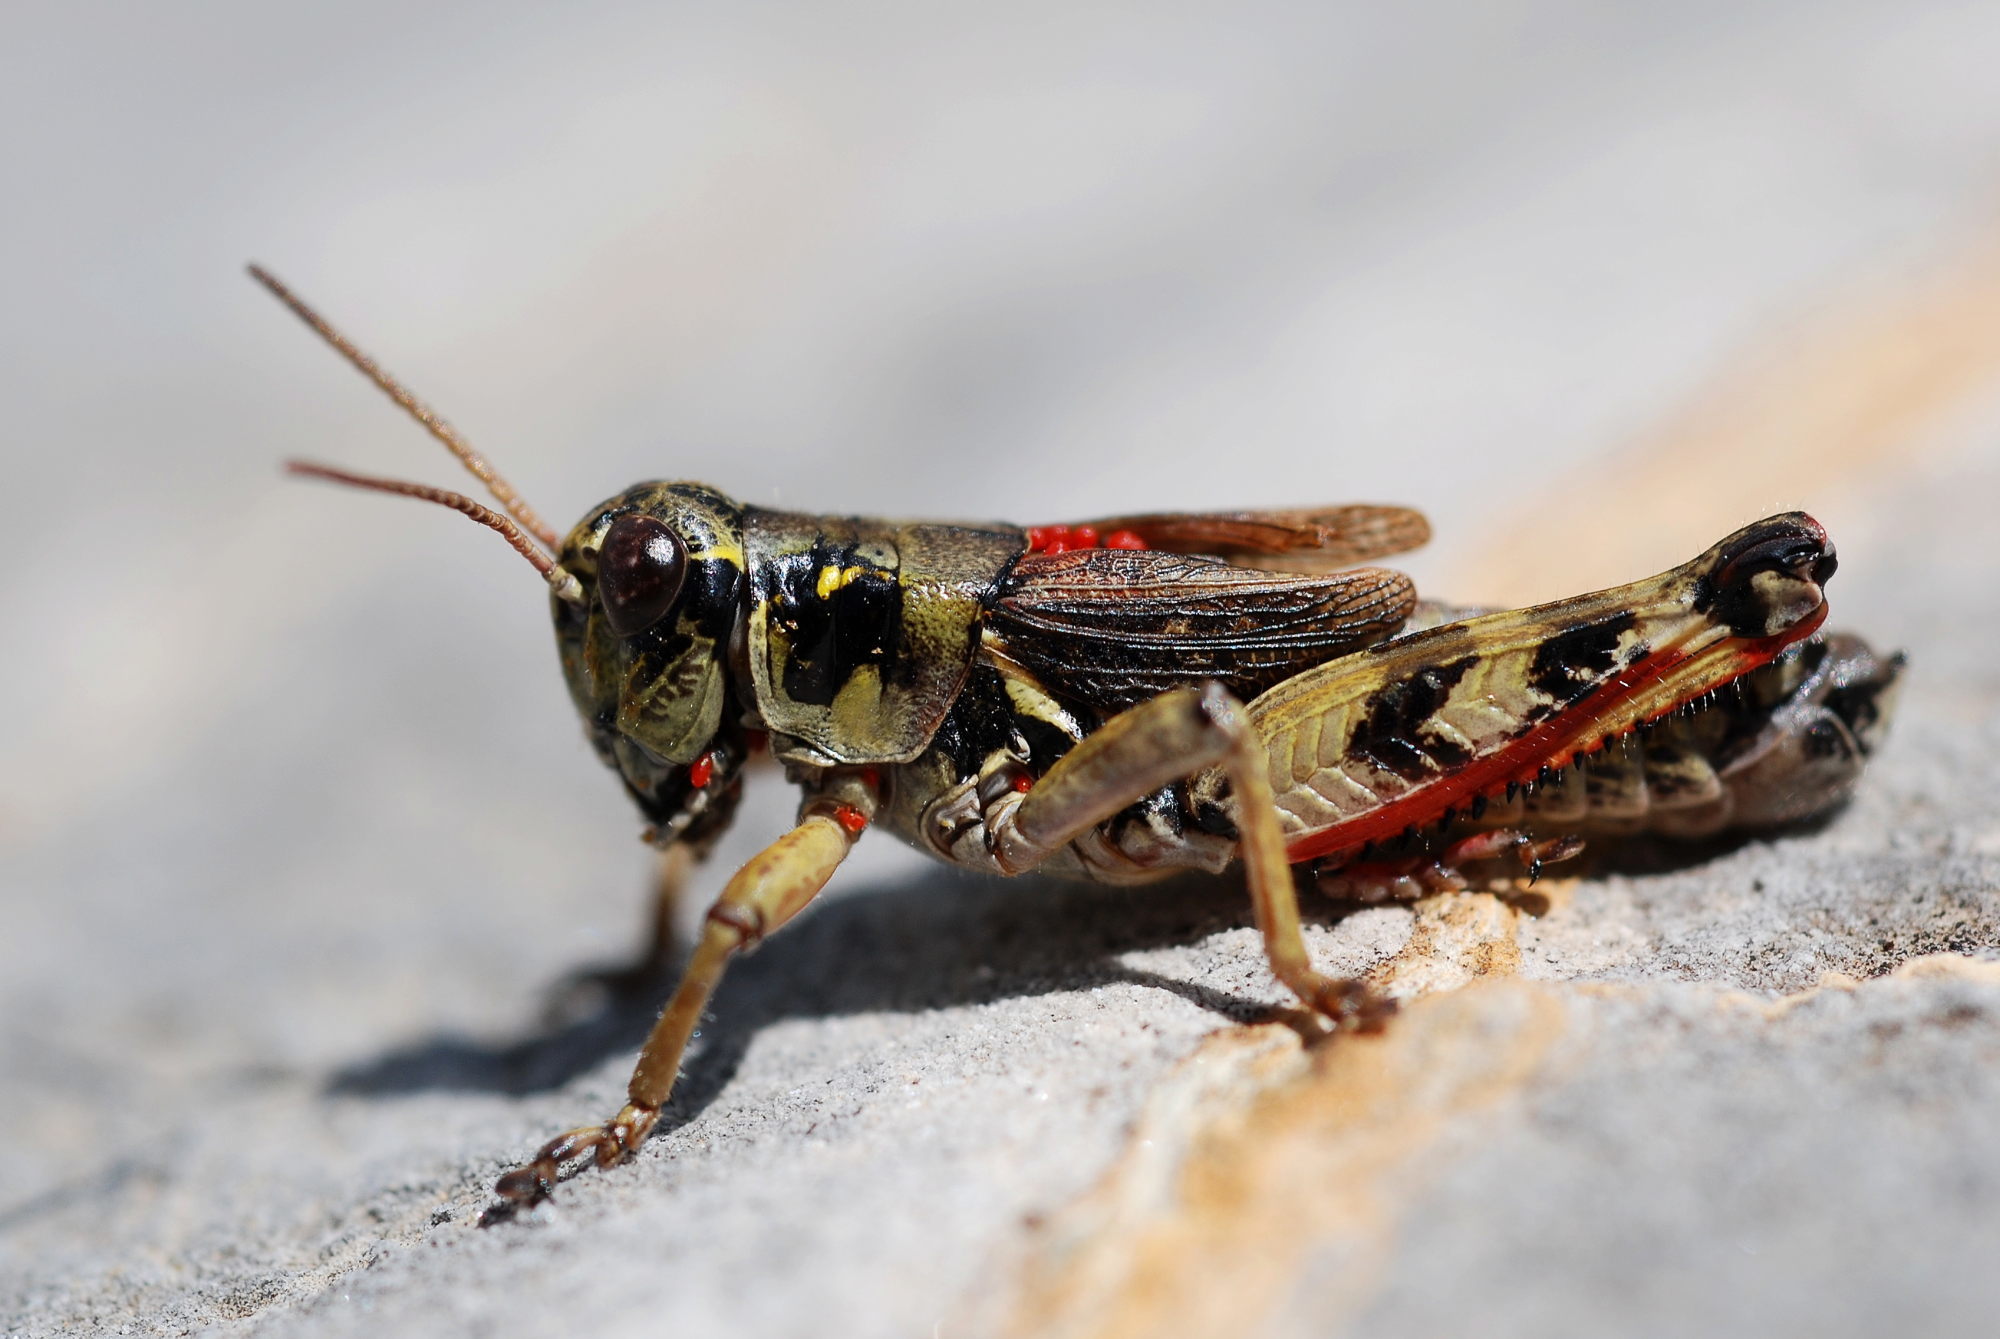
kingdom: Animalia
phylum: Arthropoda
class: Insecta
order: Orthoptera
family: Acrididae
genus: Bohemanella
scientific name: Bohemanella frigida
